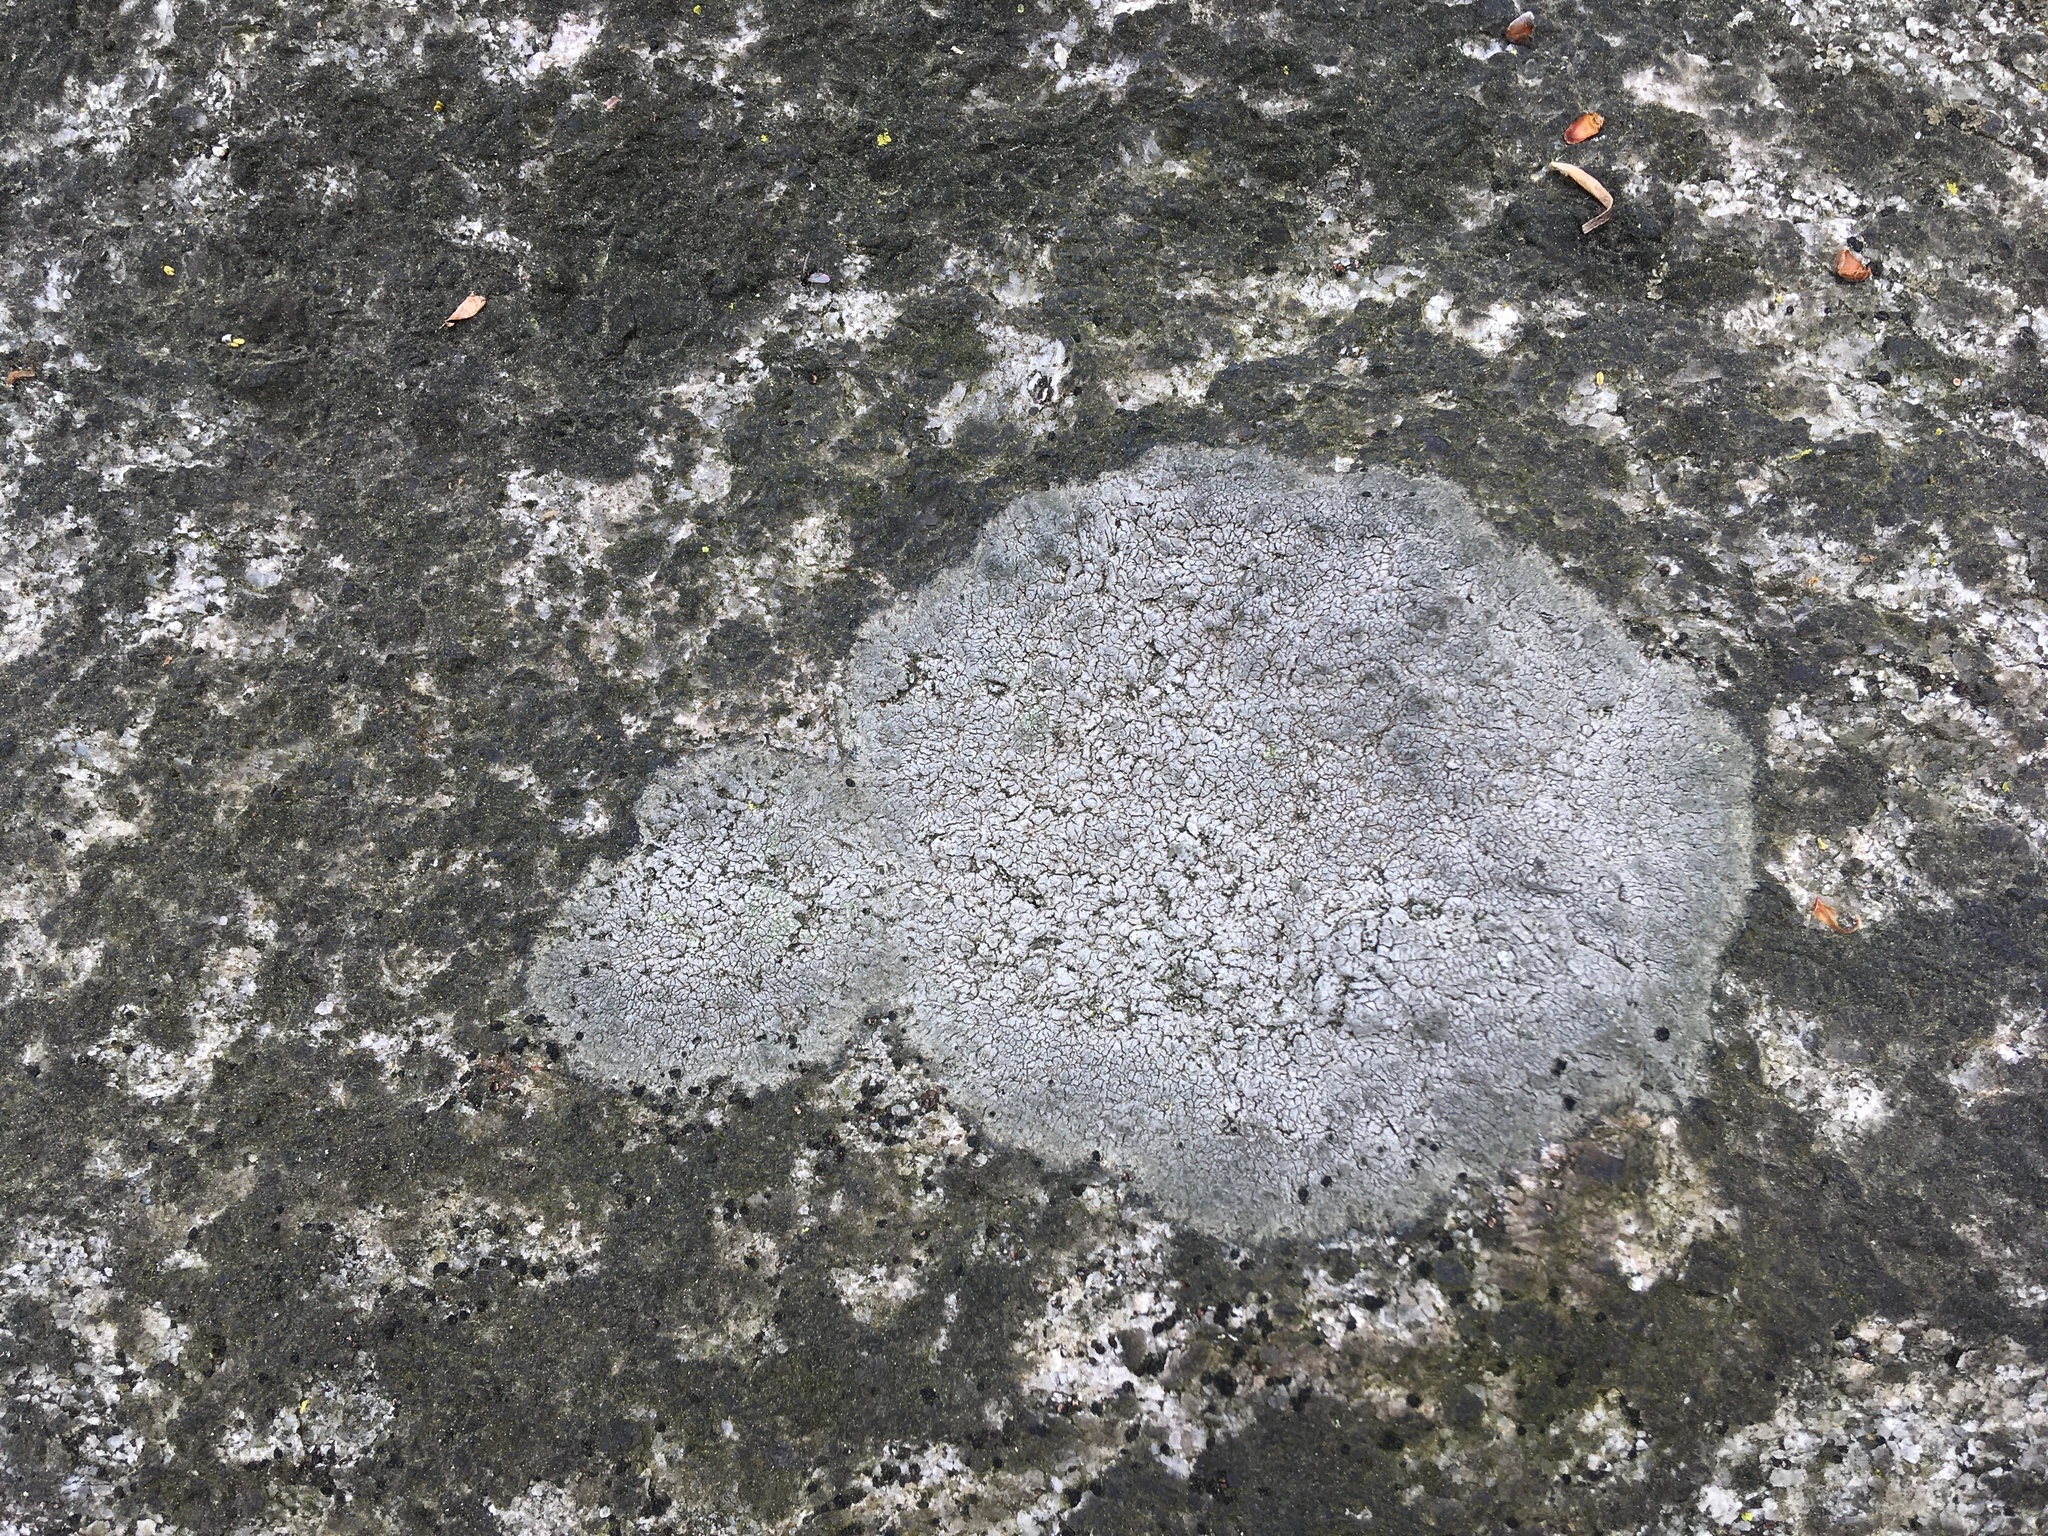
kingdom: Fungi
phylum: Ascomycota
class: Lecanoromycetes
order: Lecideales
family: Lecideaceae
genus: Porpidia
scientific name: Porpidia albocaerulescens
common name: Smokey-eyed boulder lichen
